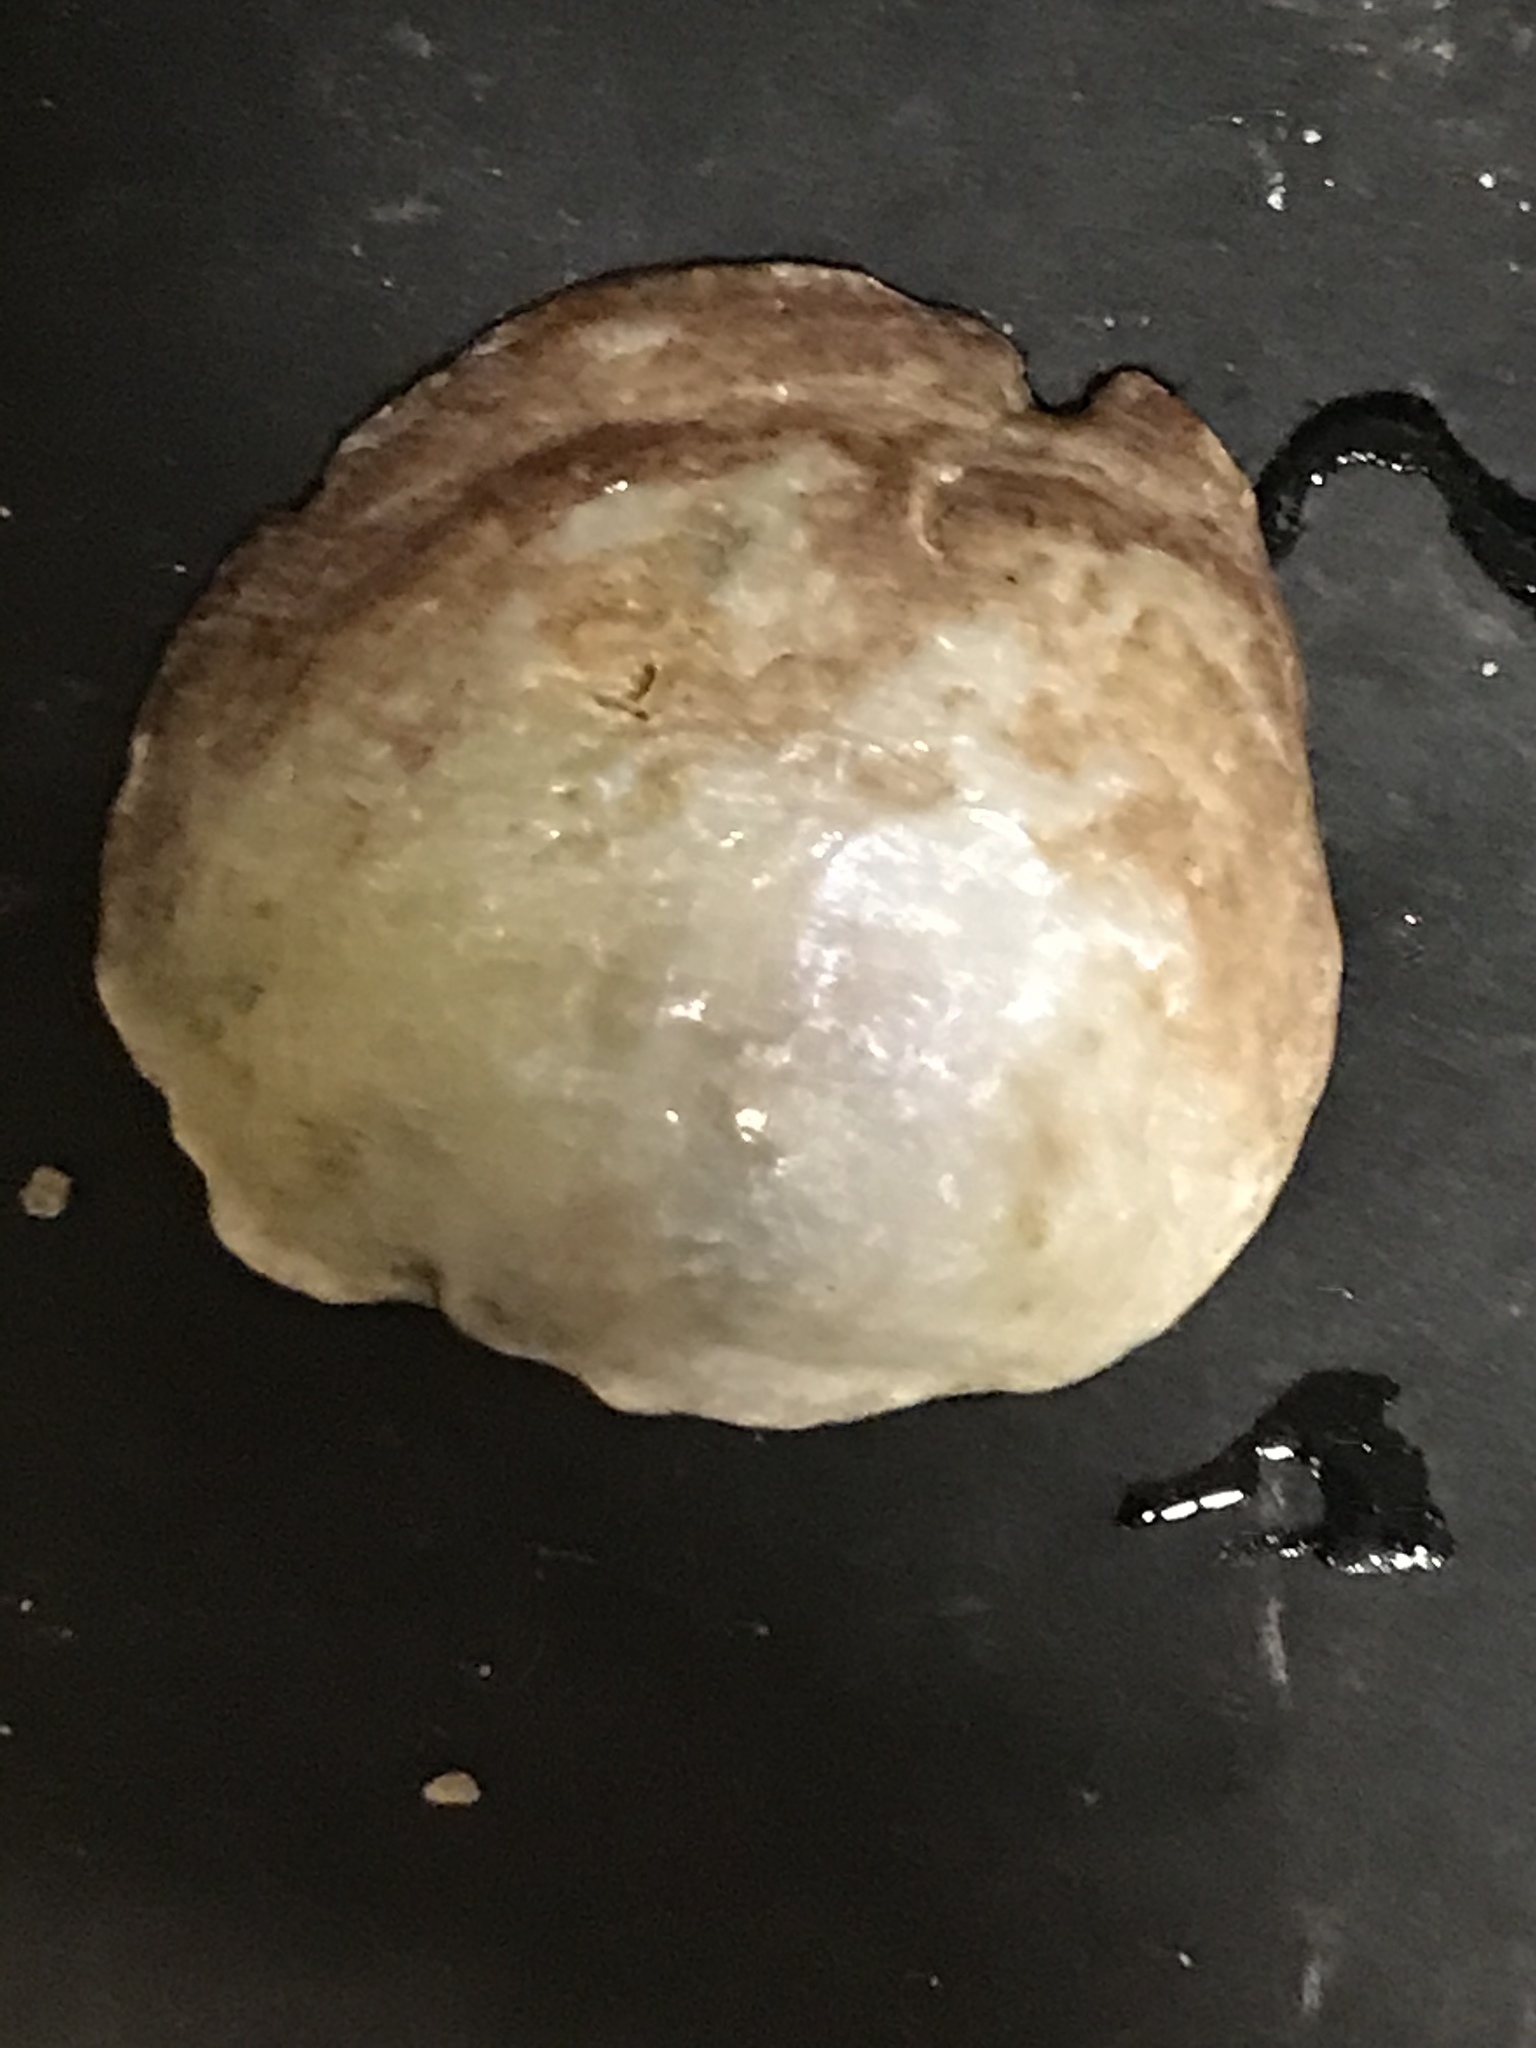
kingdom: Animalia
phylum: Mollusca
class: Bivalvia
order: Pectinida
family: Anomiidae
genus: Pododesmus
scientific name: Pododesmus macrochisma
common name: Alaska jingle
